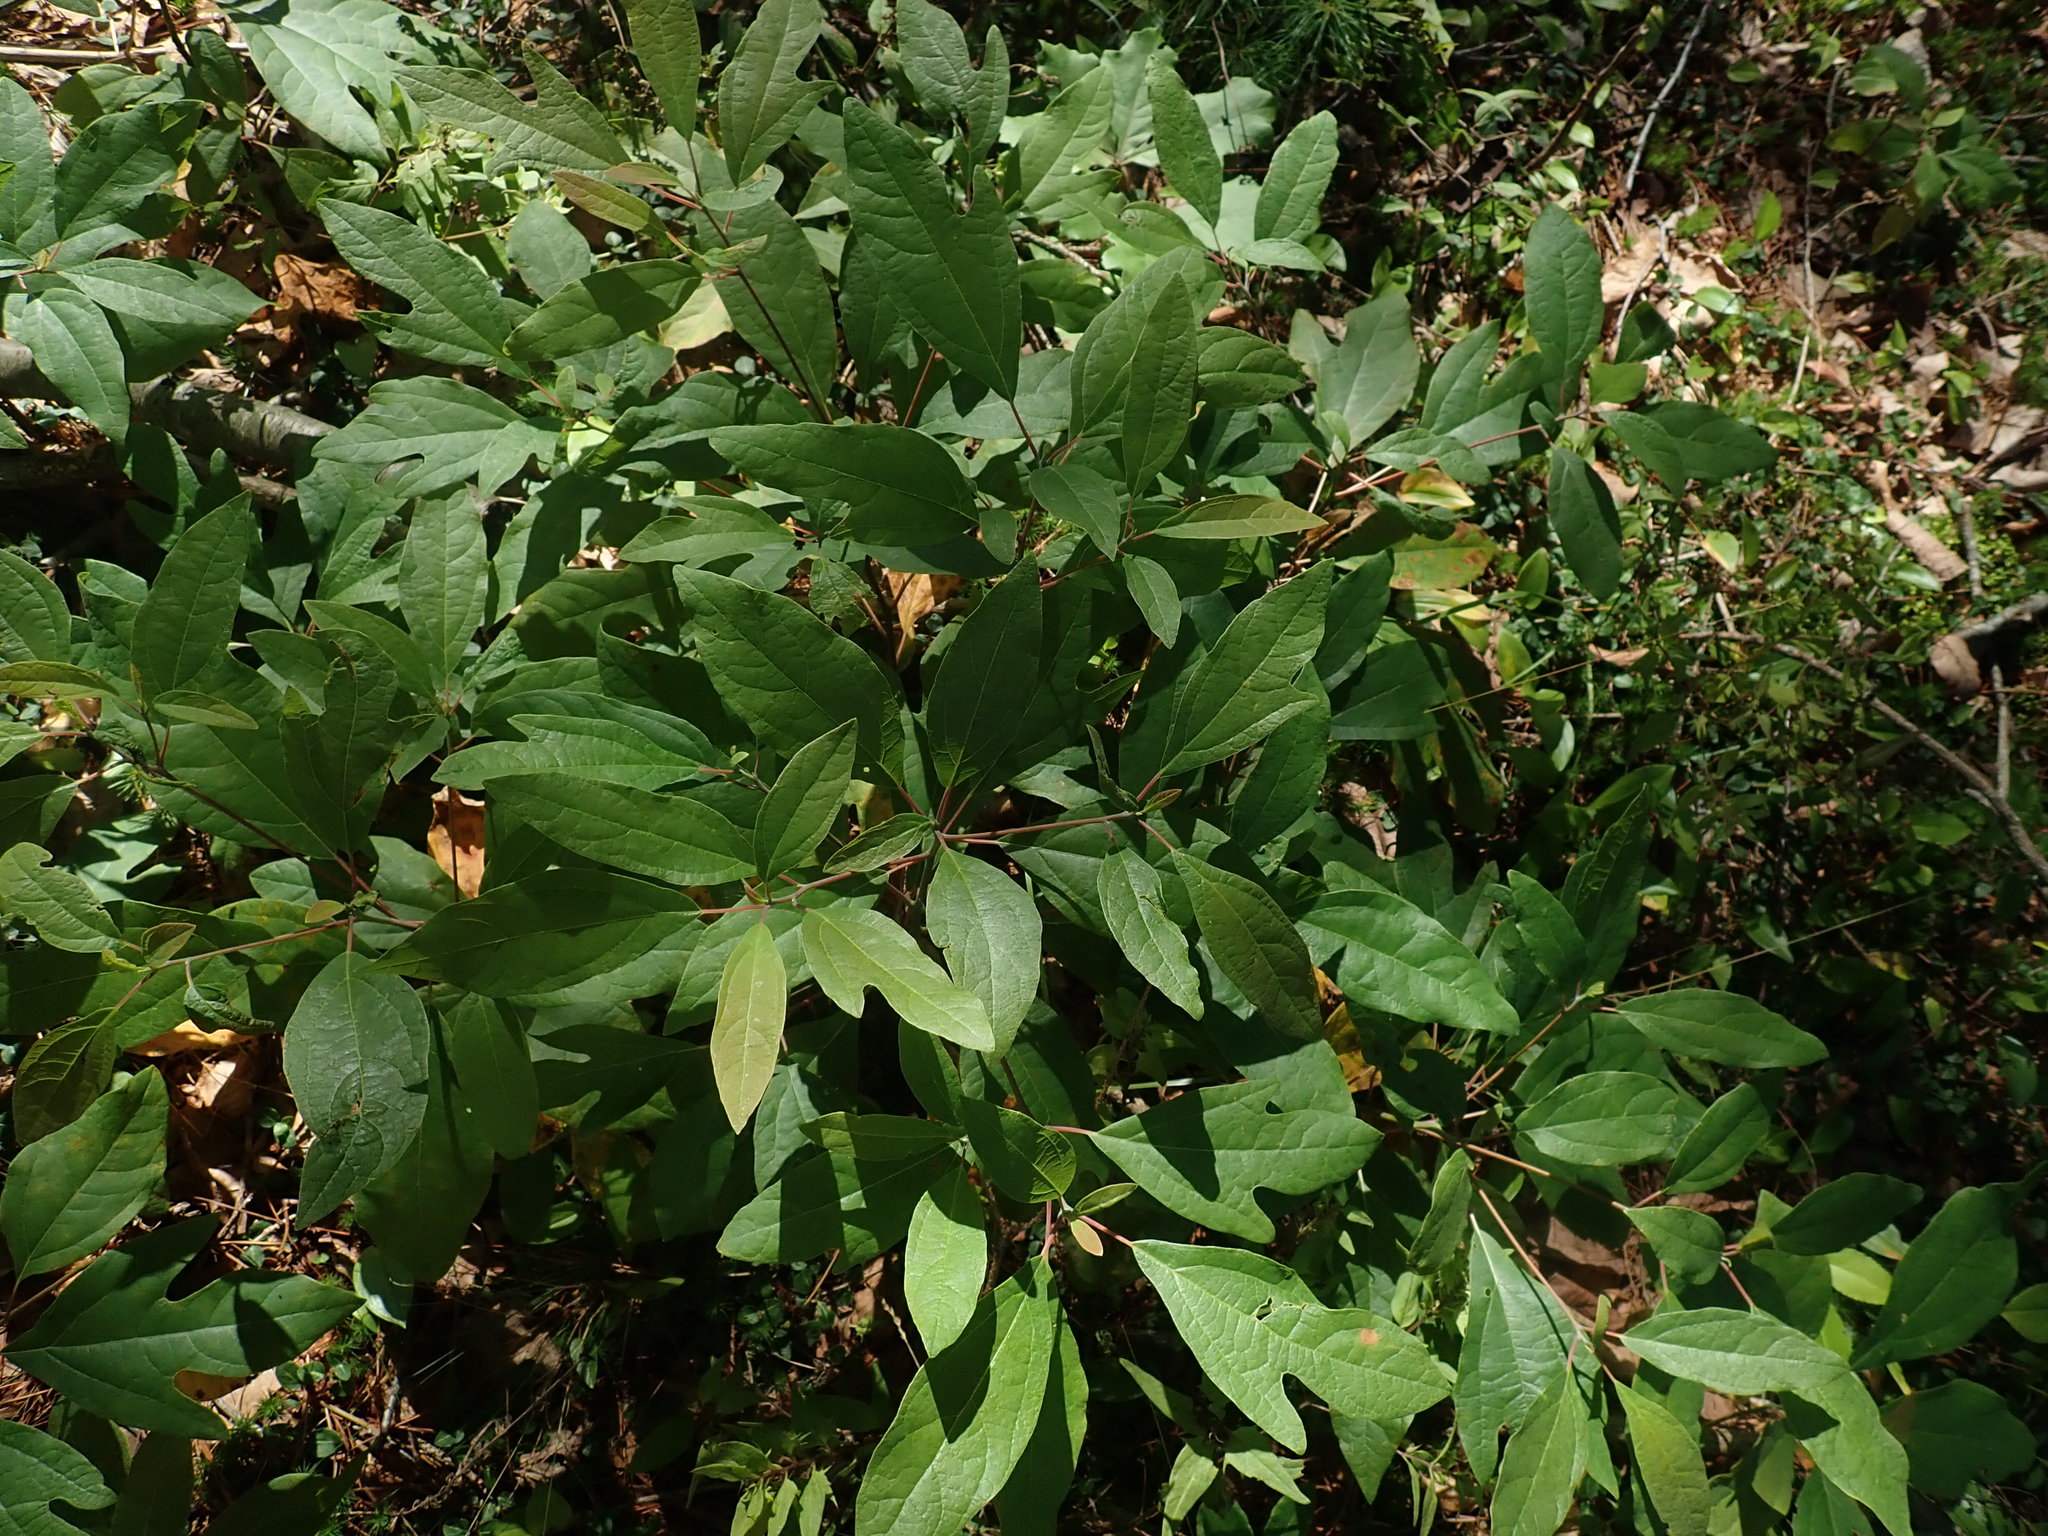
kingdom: Plantae
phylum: Tracheophyta
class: Magnoliopsida
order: Laurales
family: Lauraceae
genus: Sassafras
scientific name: Sassafras albidum
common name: Sassafras
